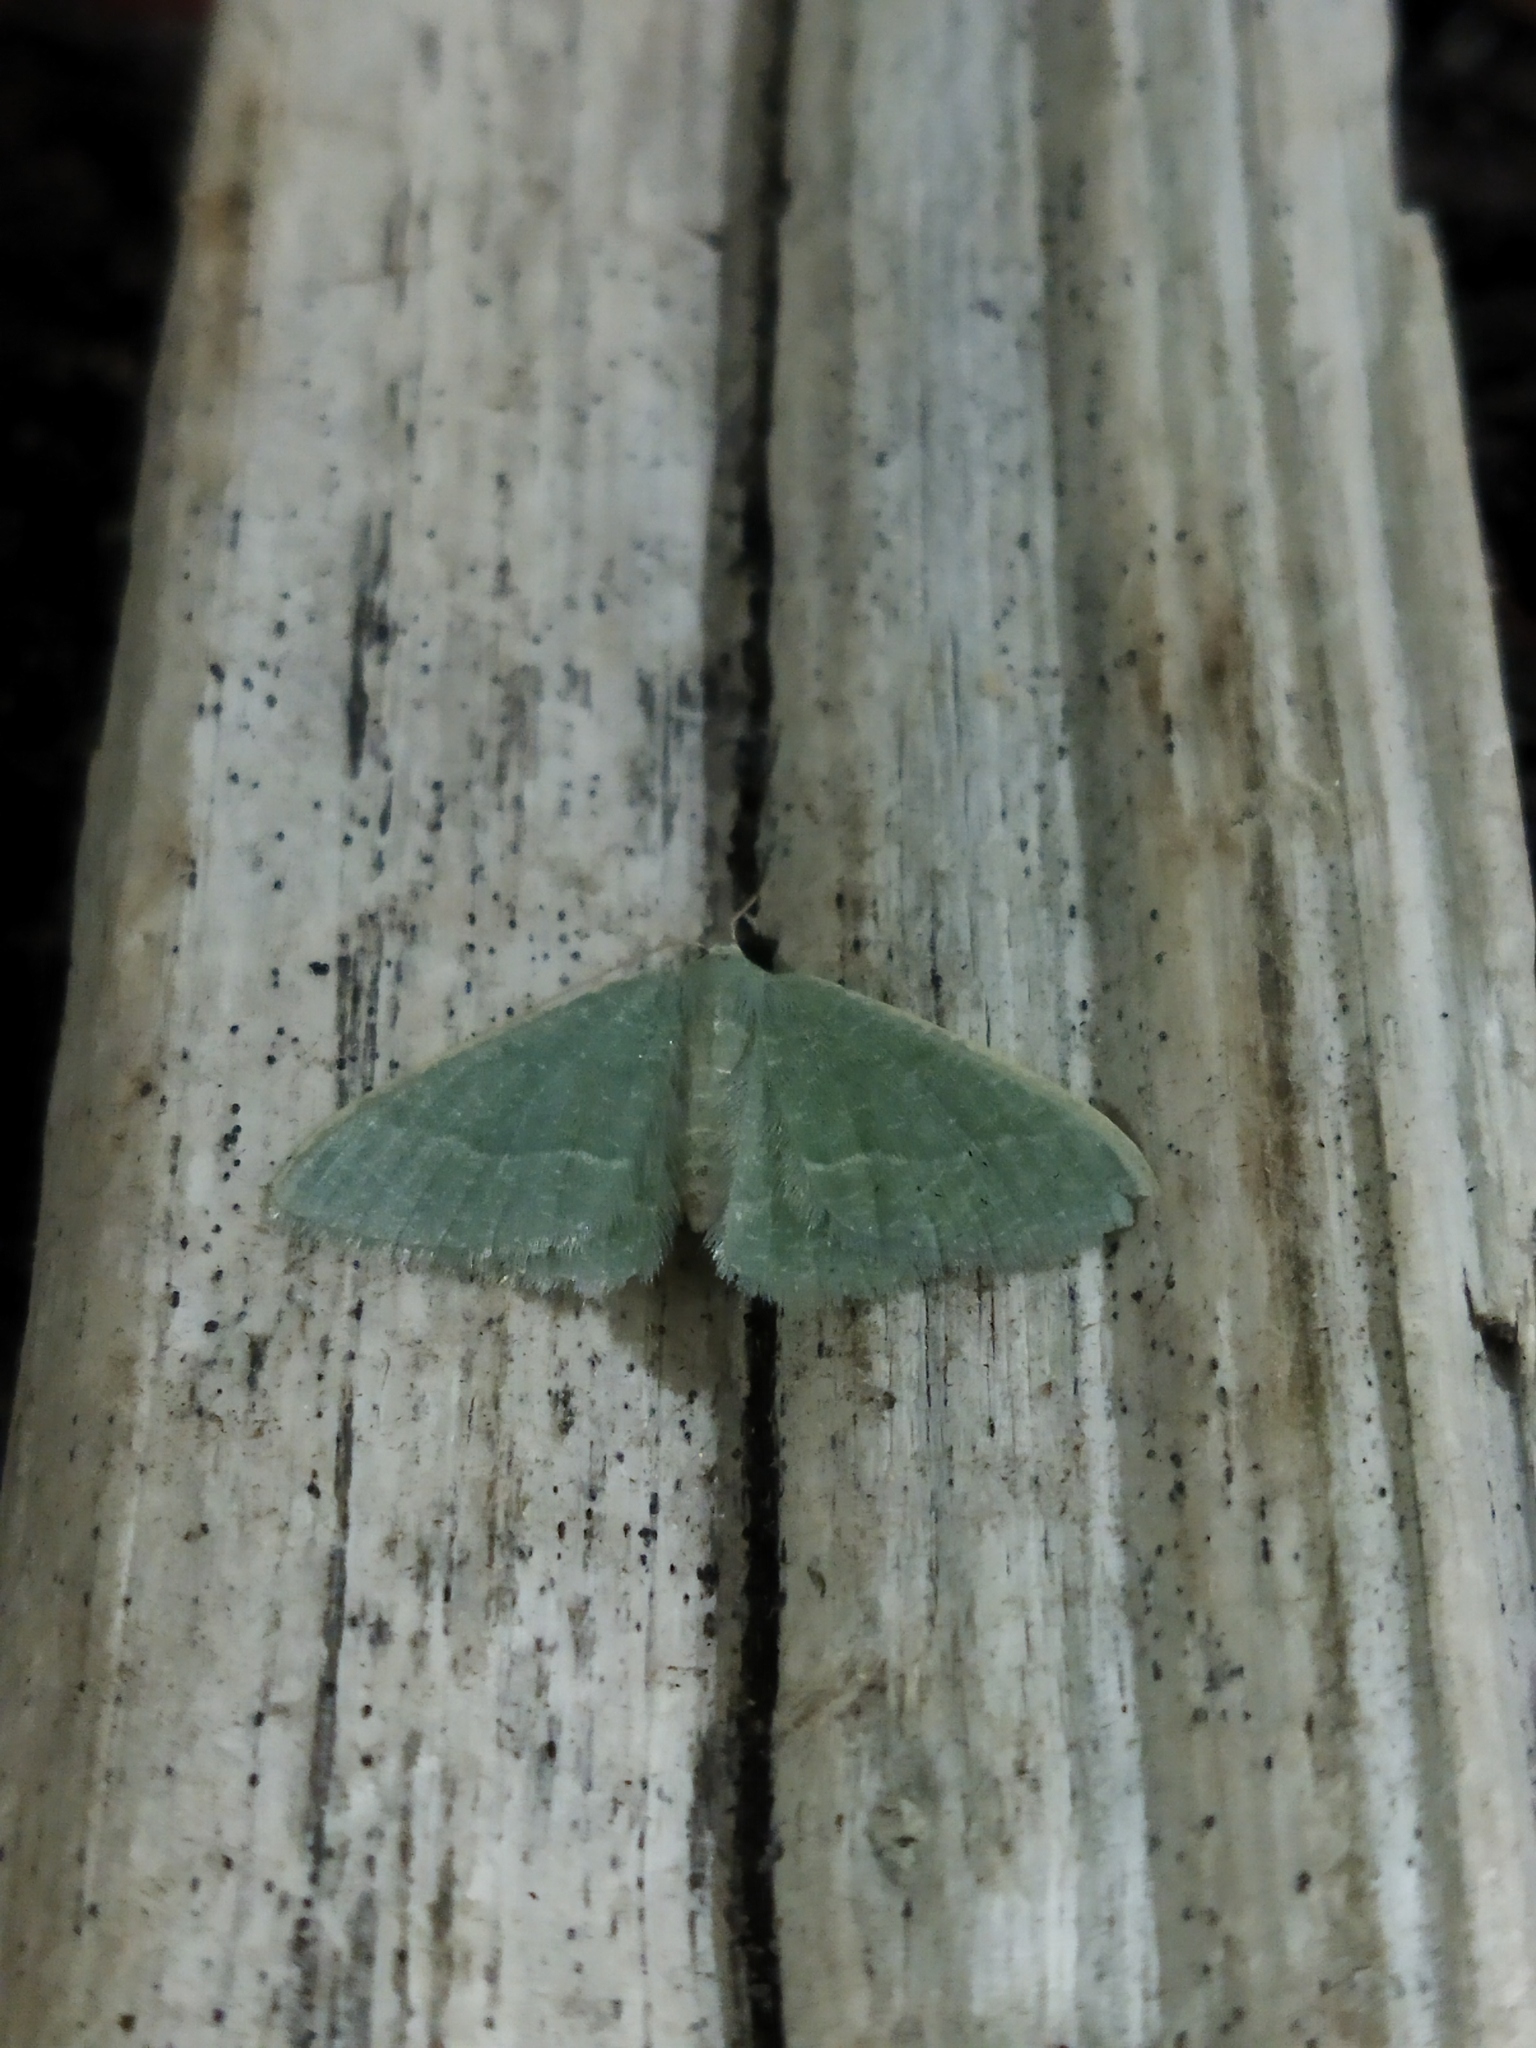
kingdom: Animalia
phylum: Arthropoda
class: Insecta
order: Lepidoptera
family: Geometridae
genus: Chlorissa
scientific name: Chlorissa etruscaria
